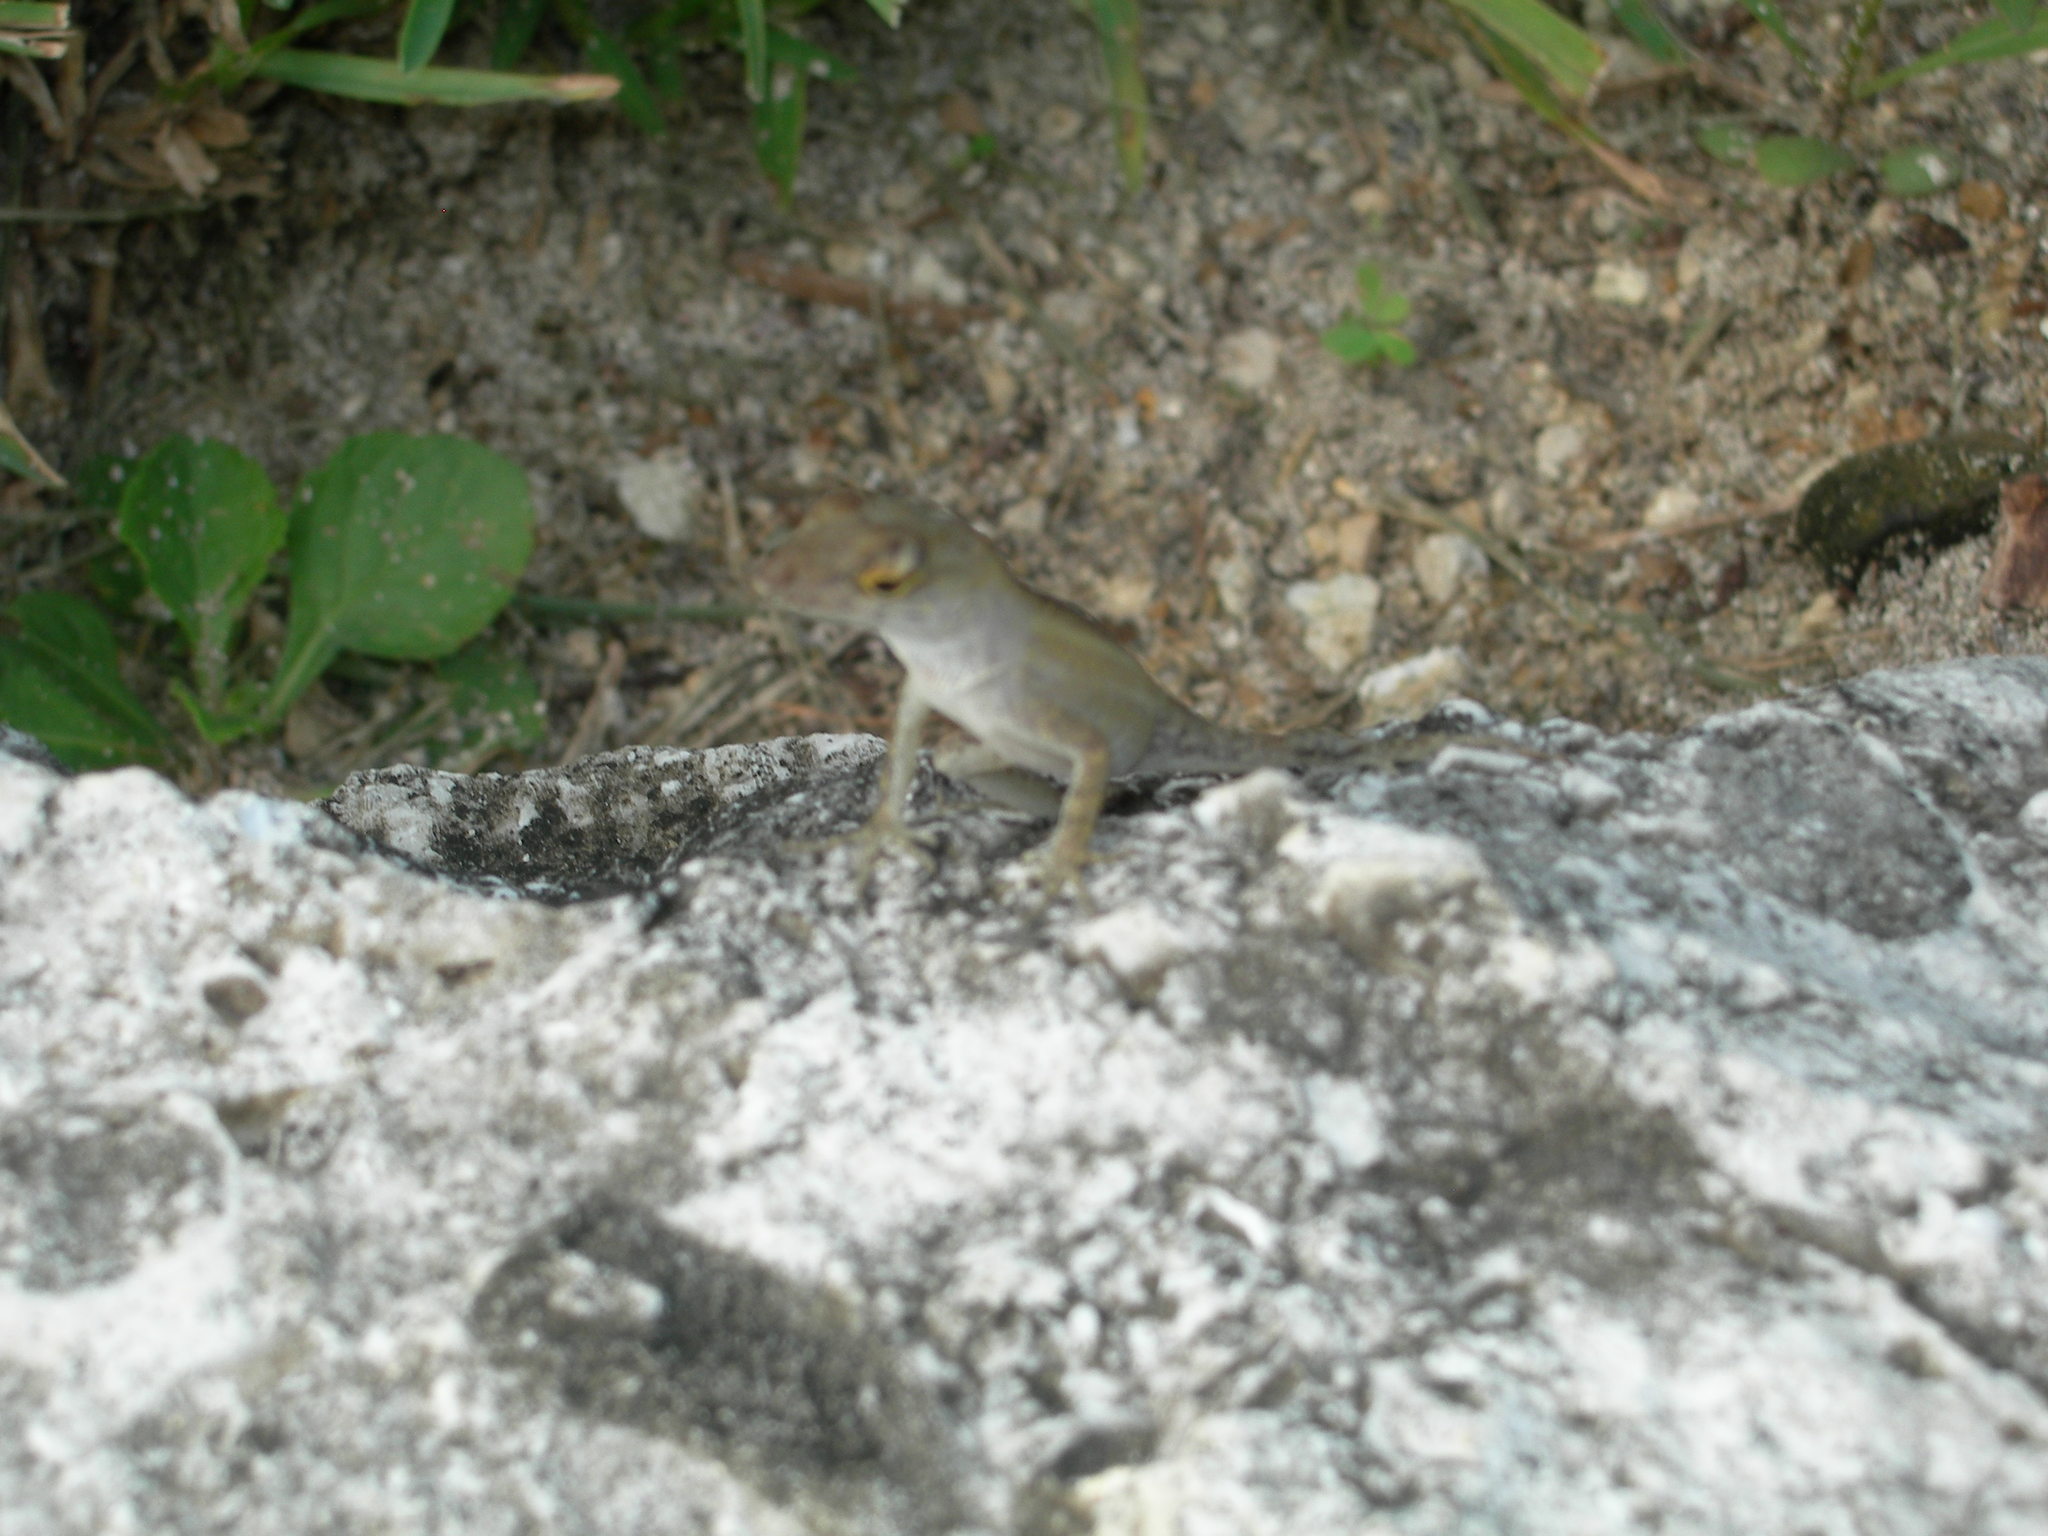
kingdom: Animalia
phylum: Chordata
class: Squamata
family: Dactyloidae
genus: Anolis
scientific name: Anolis sagrei
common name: Brown anole
